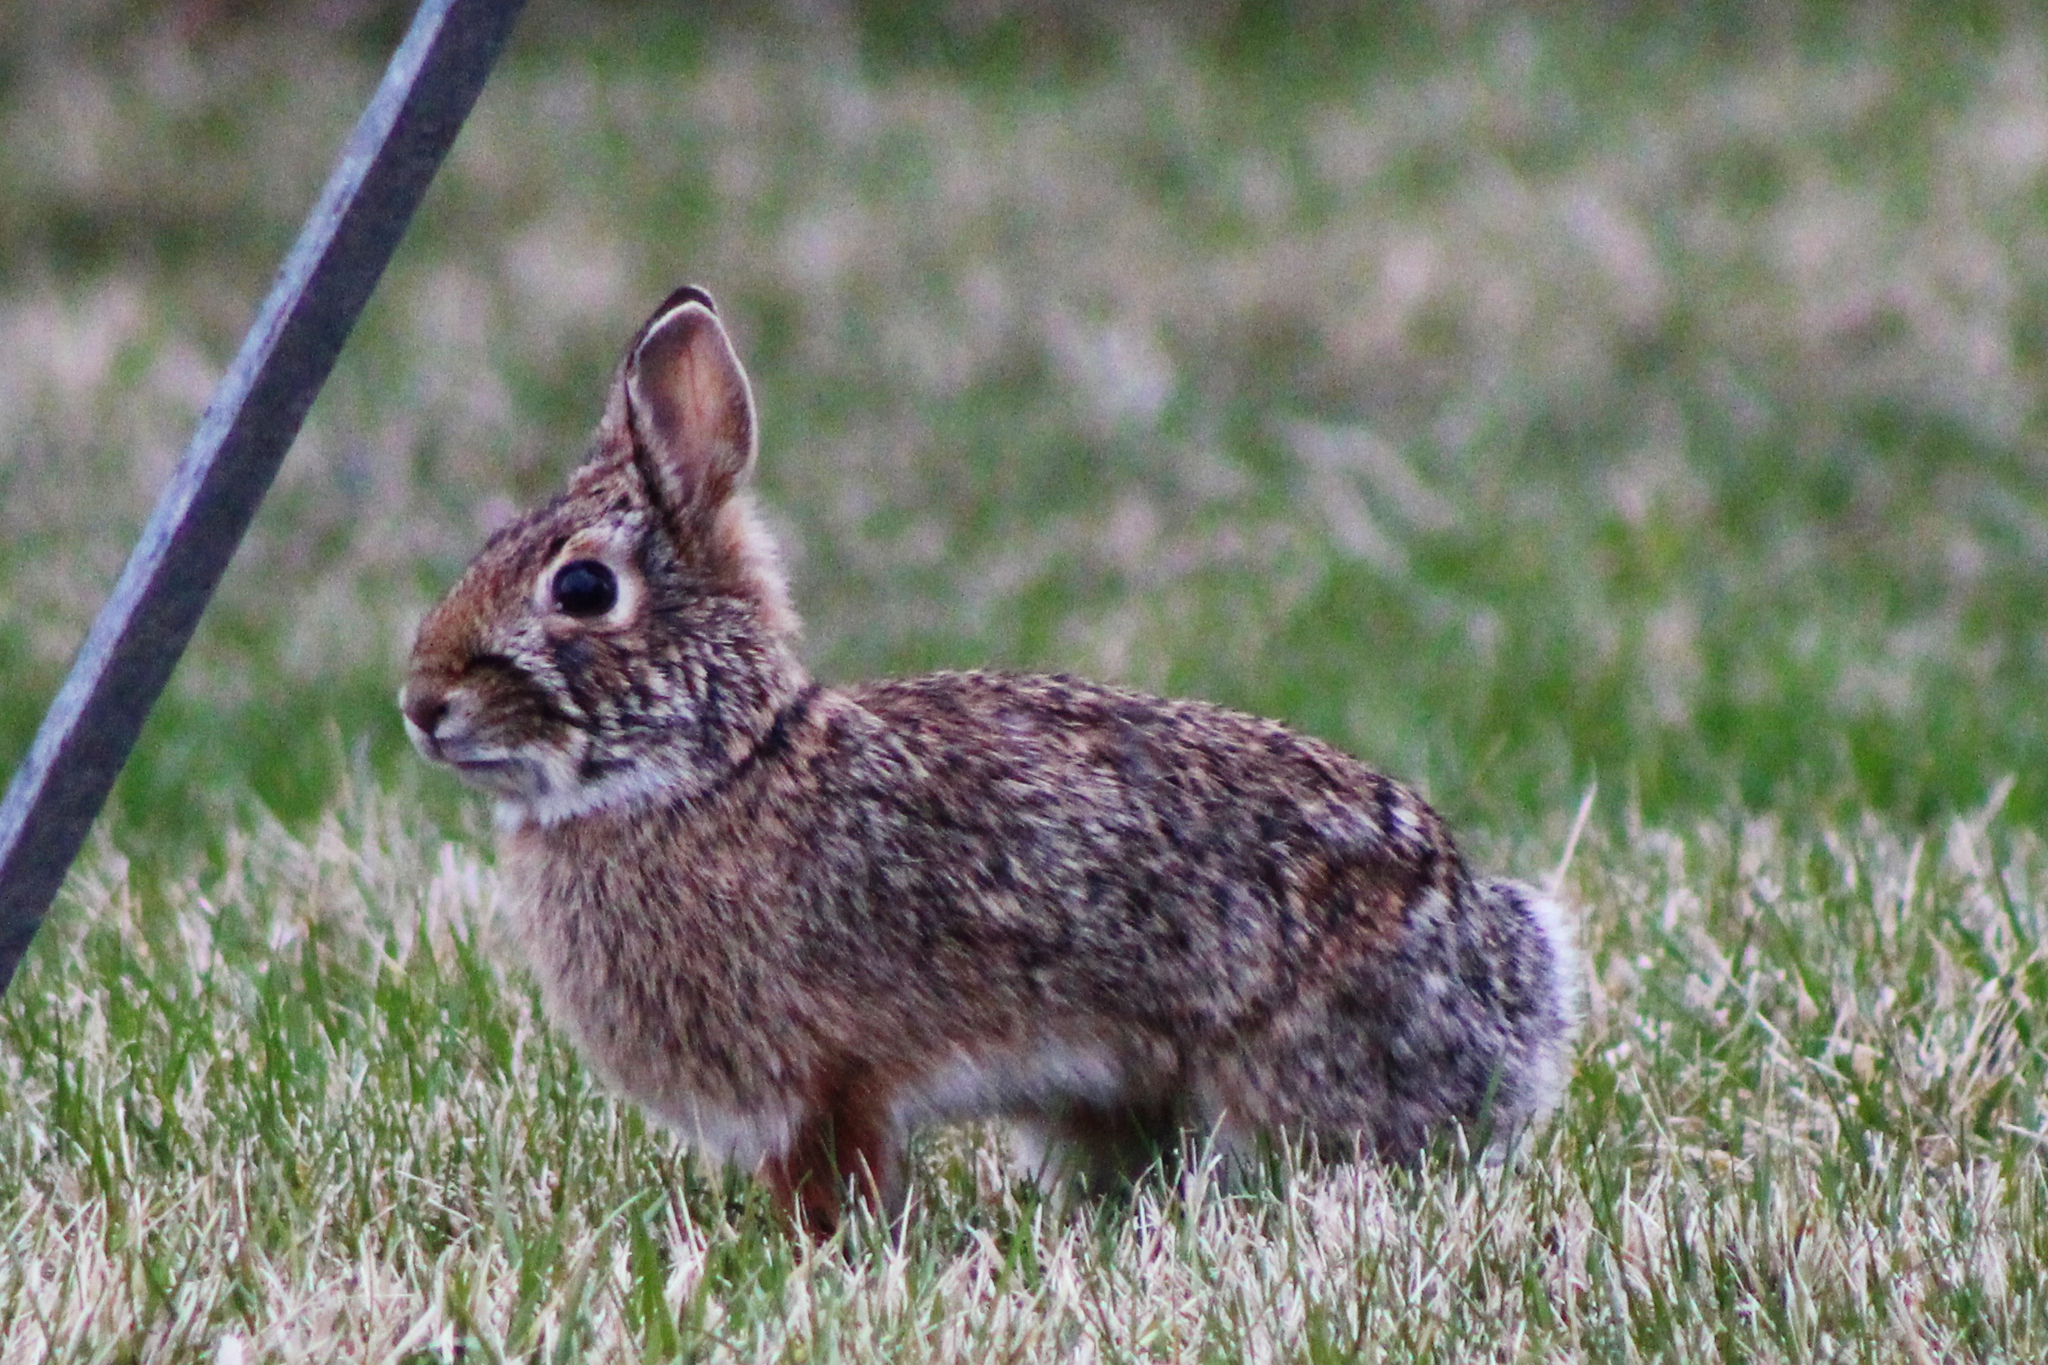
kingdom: Animalia
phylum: Chordata
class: Mammalia
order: Lagomorpha
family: Leporidae
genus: Sylvilagus
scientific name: Sylvilagus floridanus
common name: Eastern cottontail
